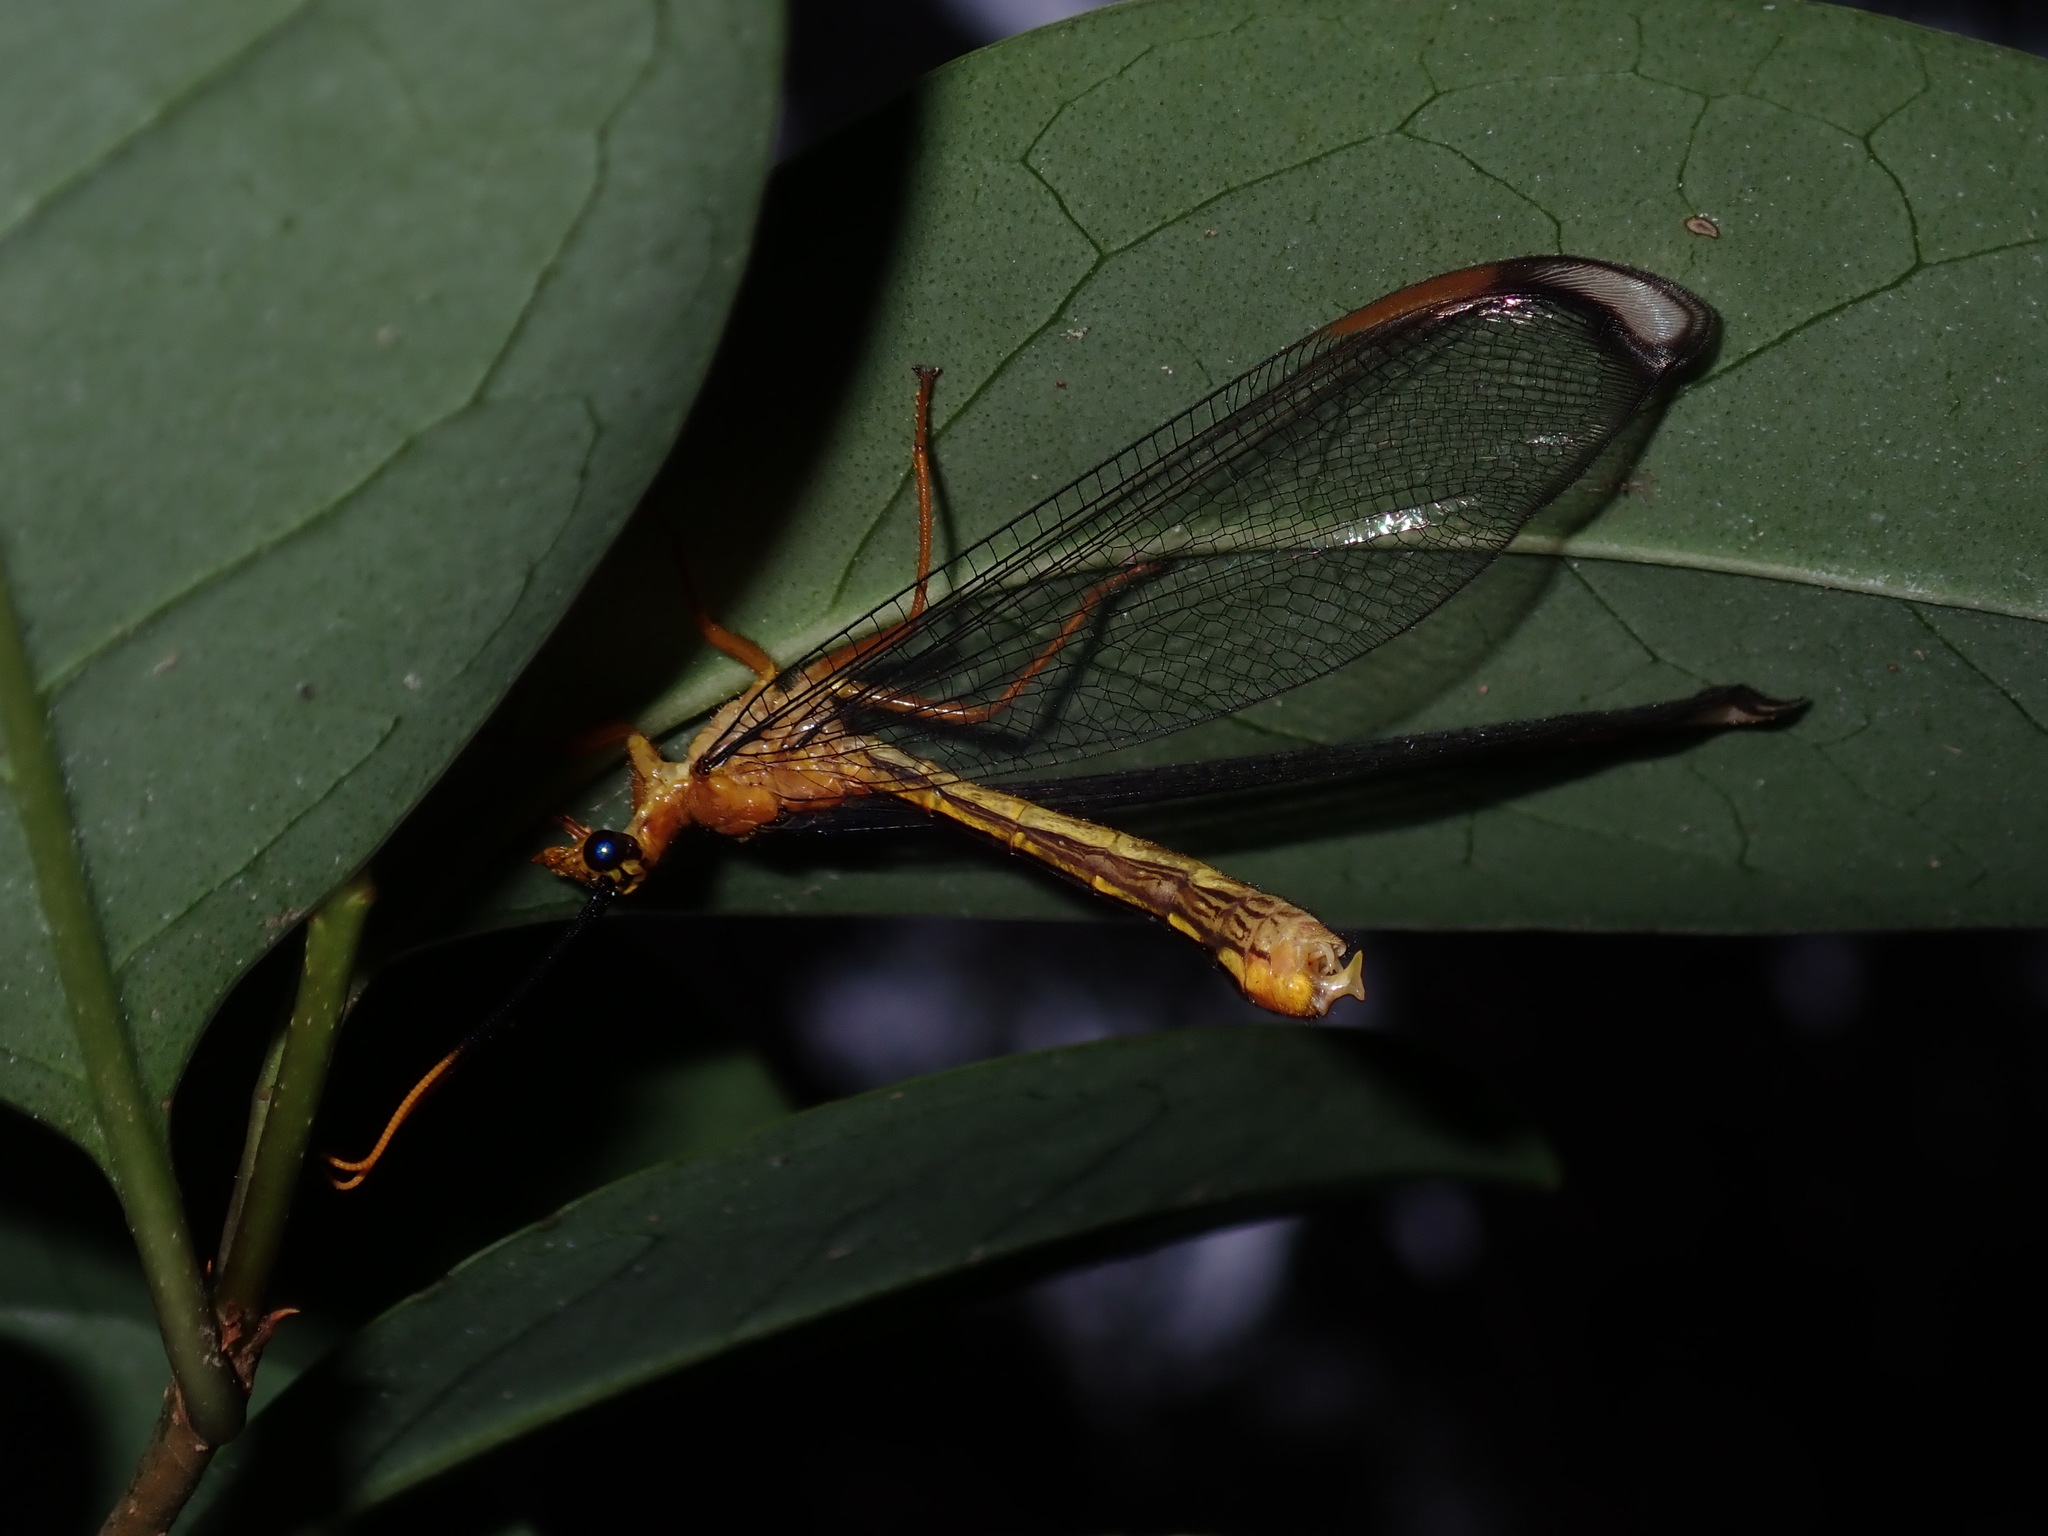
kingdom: Animalia
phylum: Arthropoda
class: Insecta
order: Neuroptera
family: Nymphidae
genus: Nymphes
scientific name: Nymphes myrmeleonoides
